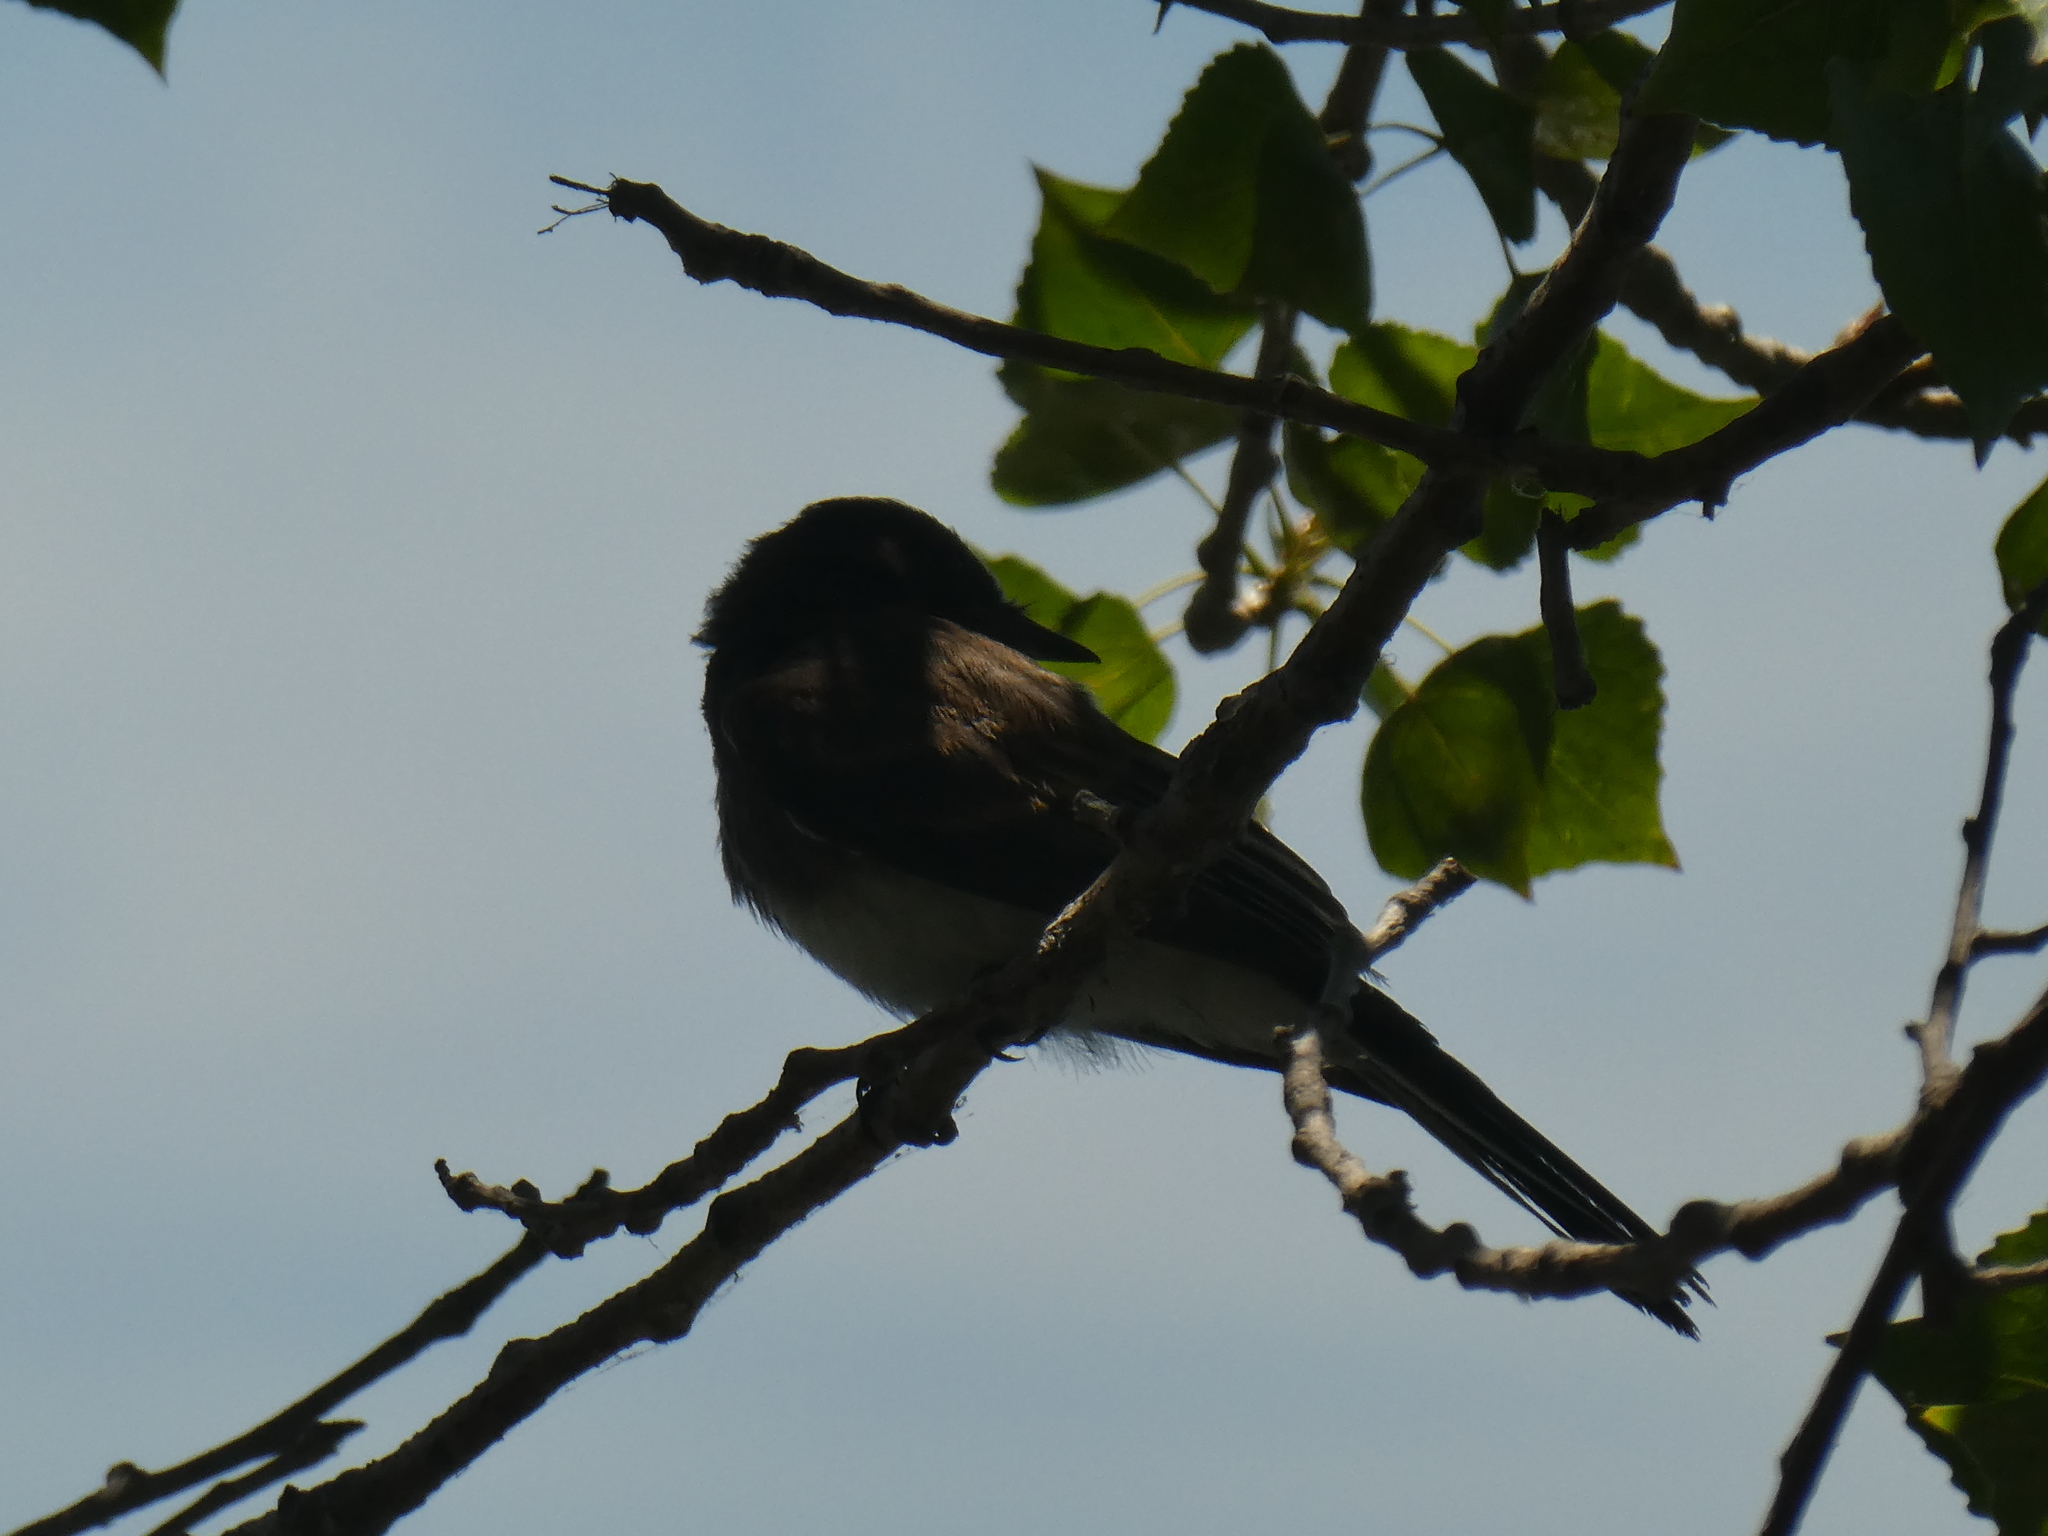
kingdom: Animalia
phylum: Chordata
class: Aves
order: Passeriformes
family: Tyrannidae
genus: Sayornis
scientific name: Sayornis nigricans
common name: Black phoebe
